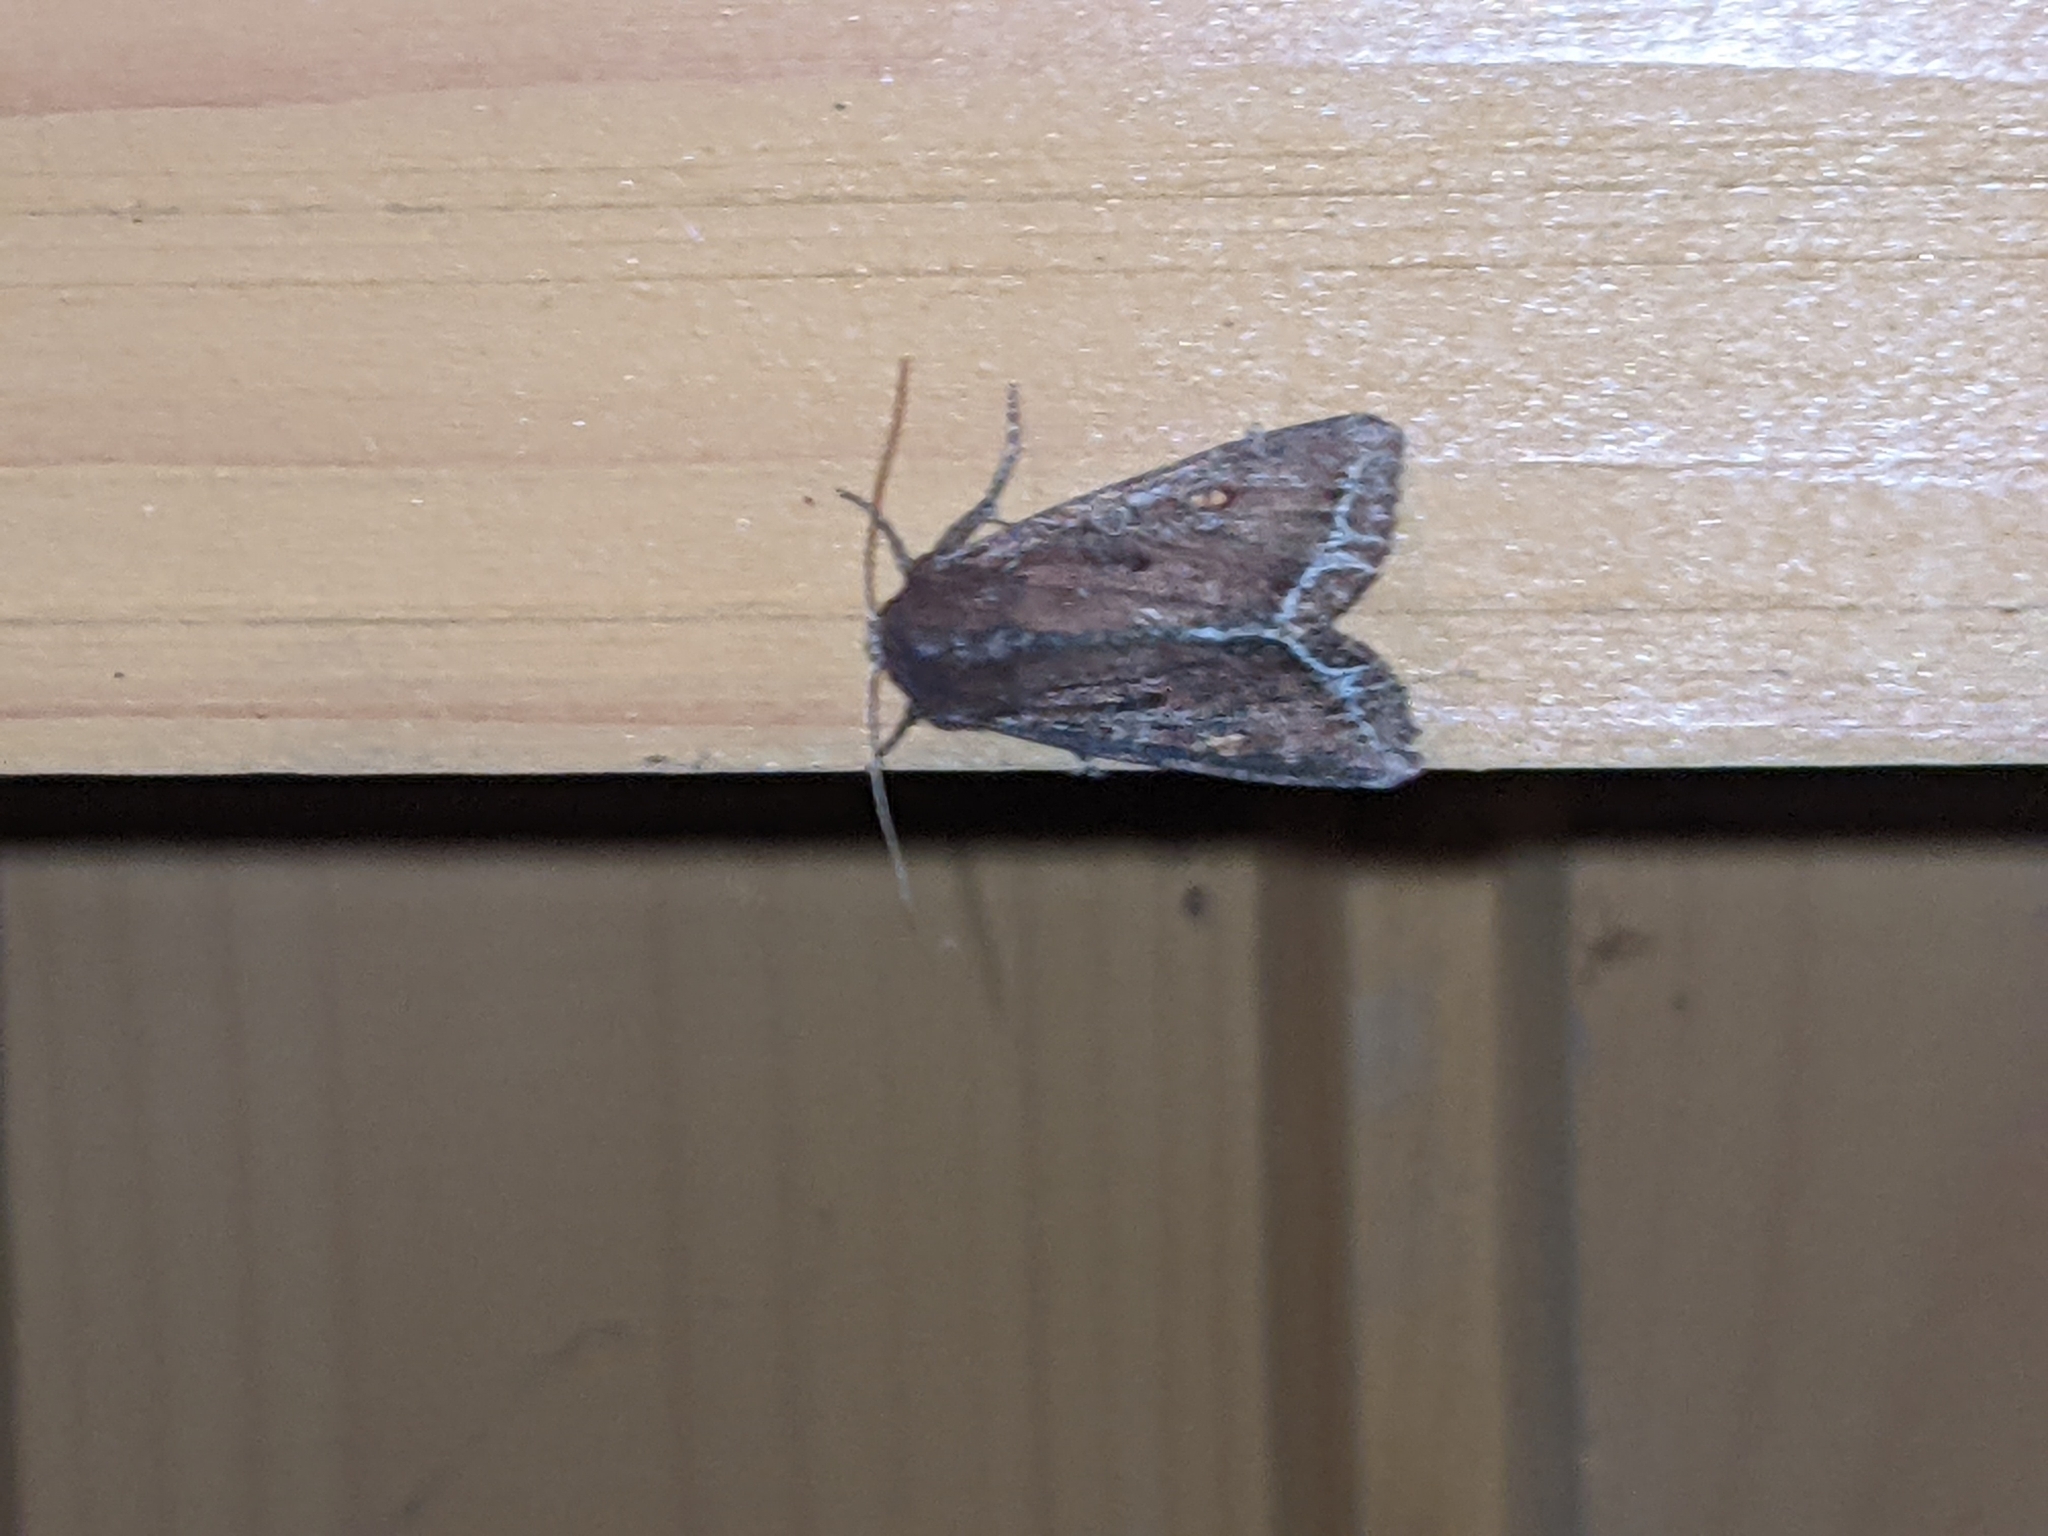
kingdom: Animalia
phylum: Arthropoda
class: Insecta
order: Lepidoptera
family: Noctuidae
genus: Lacanobia
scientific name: Lacanobia oleracea
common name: Bright-line brown-eye
